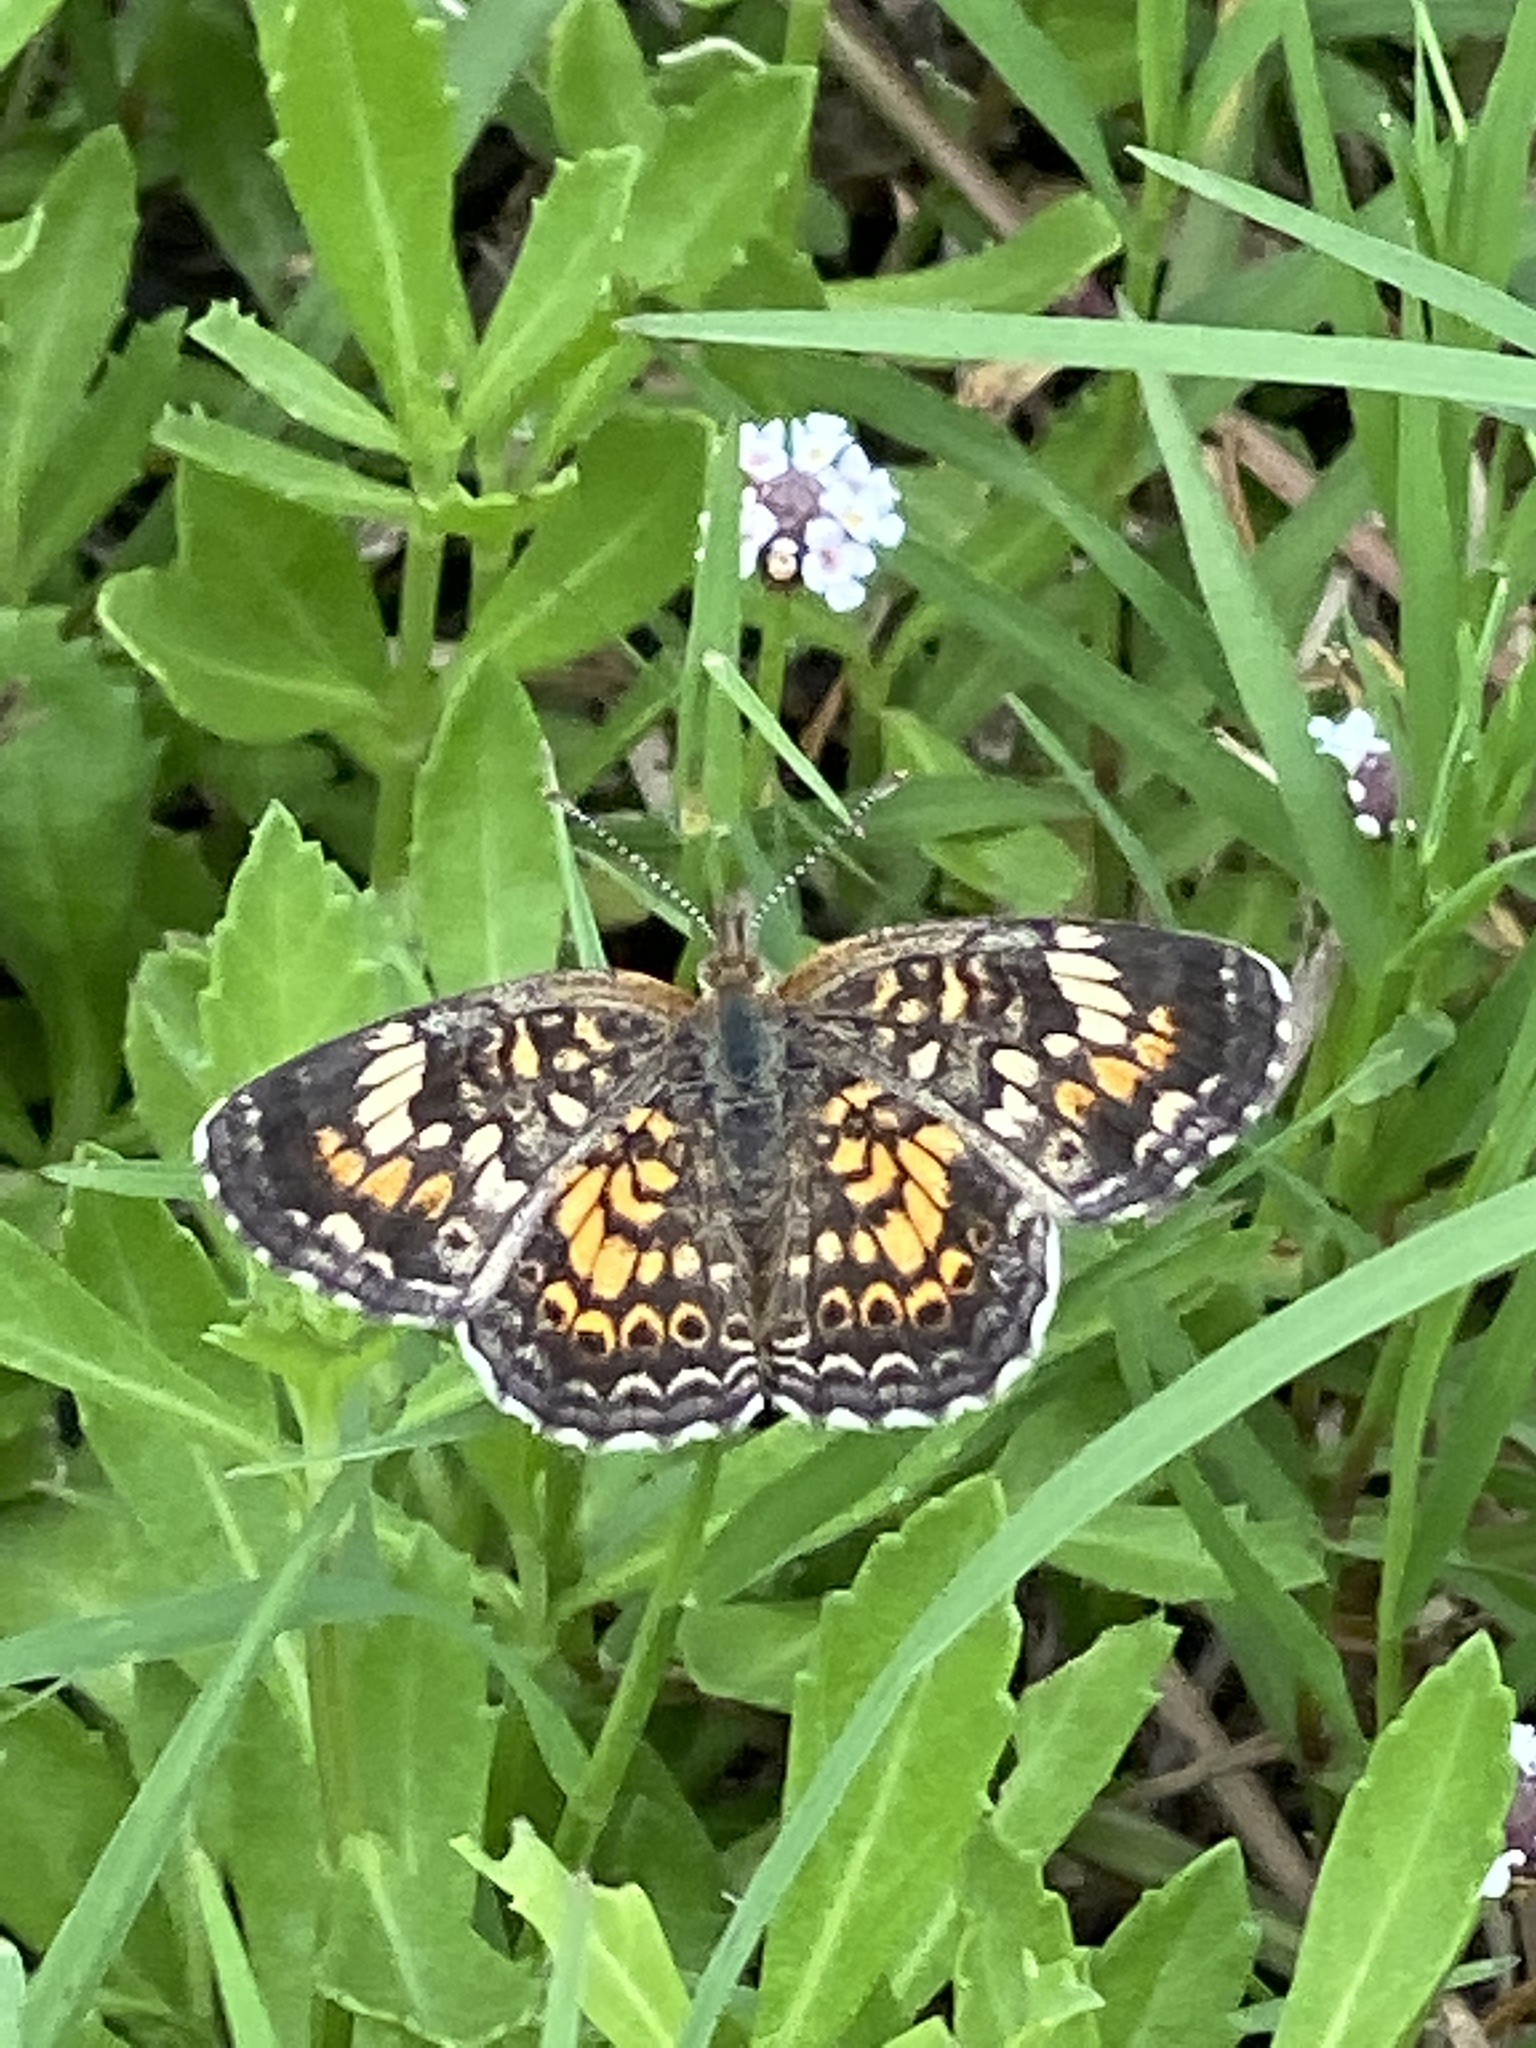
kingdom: Animalia
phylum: Arthropoda
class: Insecta
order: Lepidoptera
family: Nymphalidae
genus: Phyciodes
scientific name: Phyciodes phaon
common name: Phaon crescent
